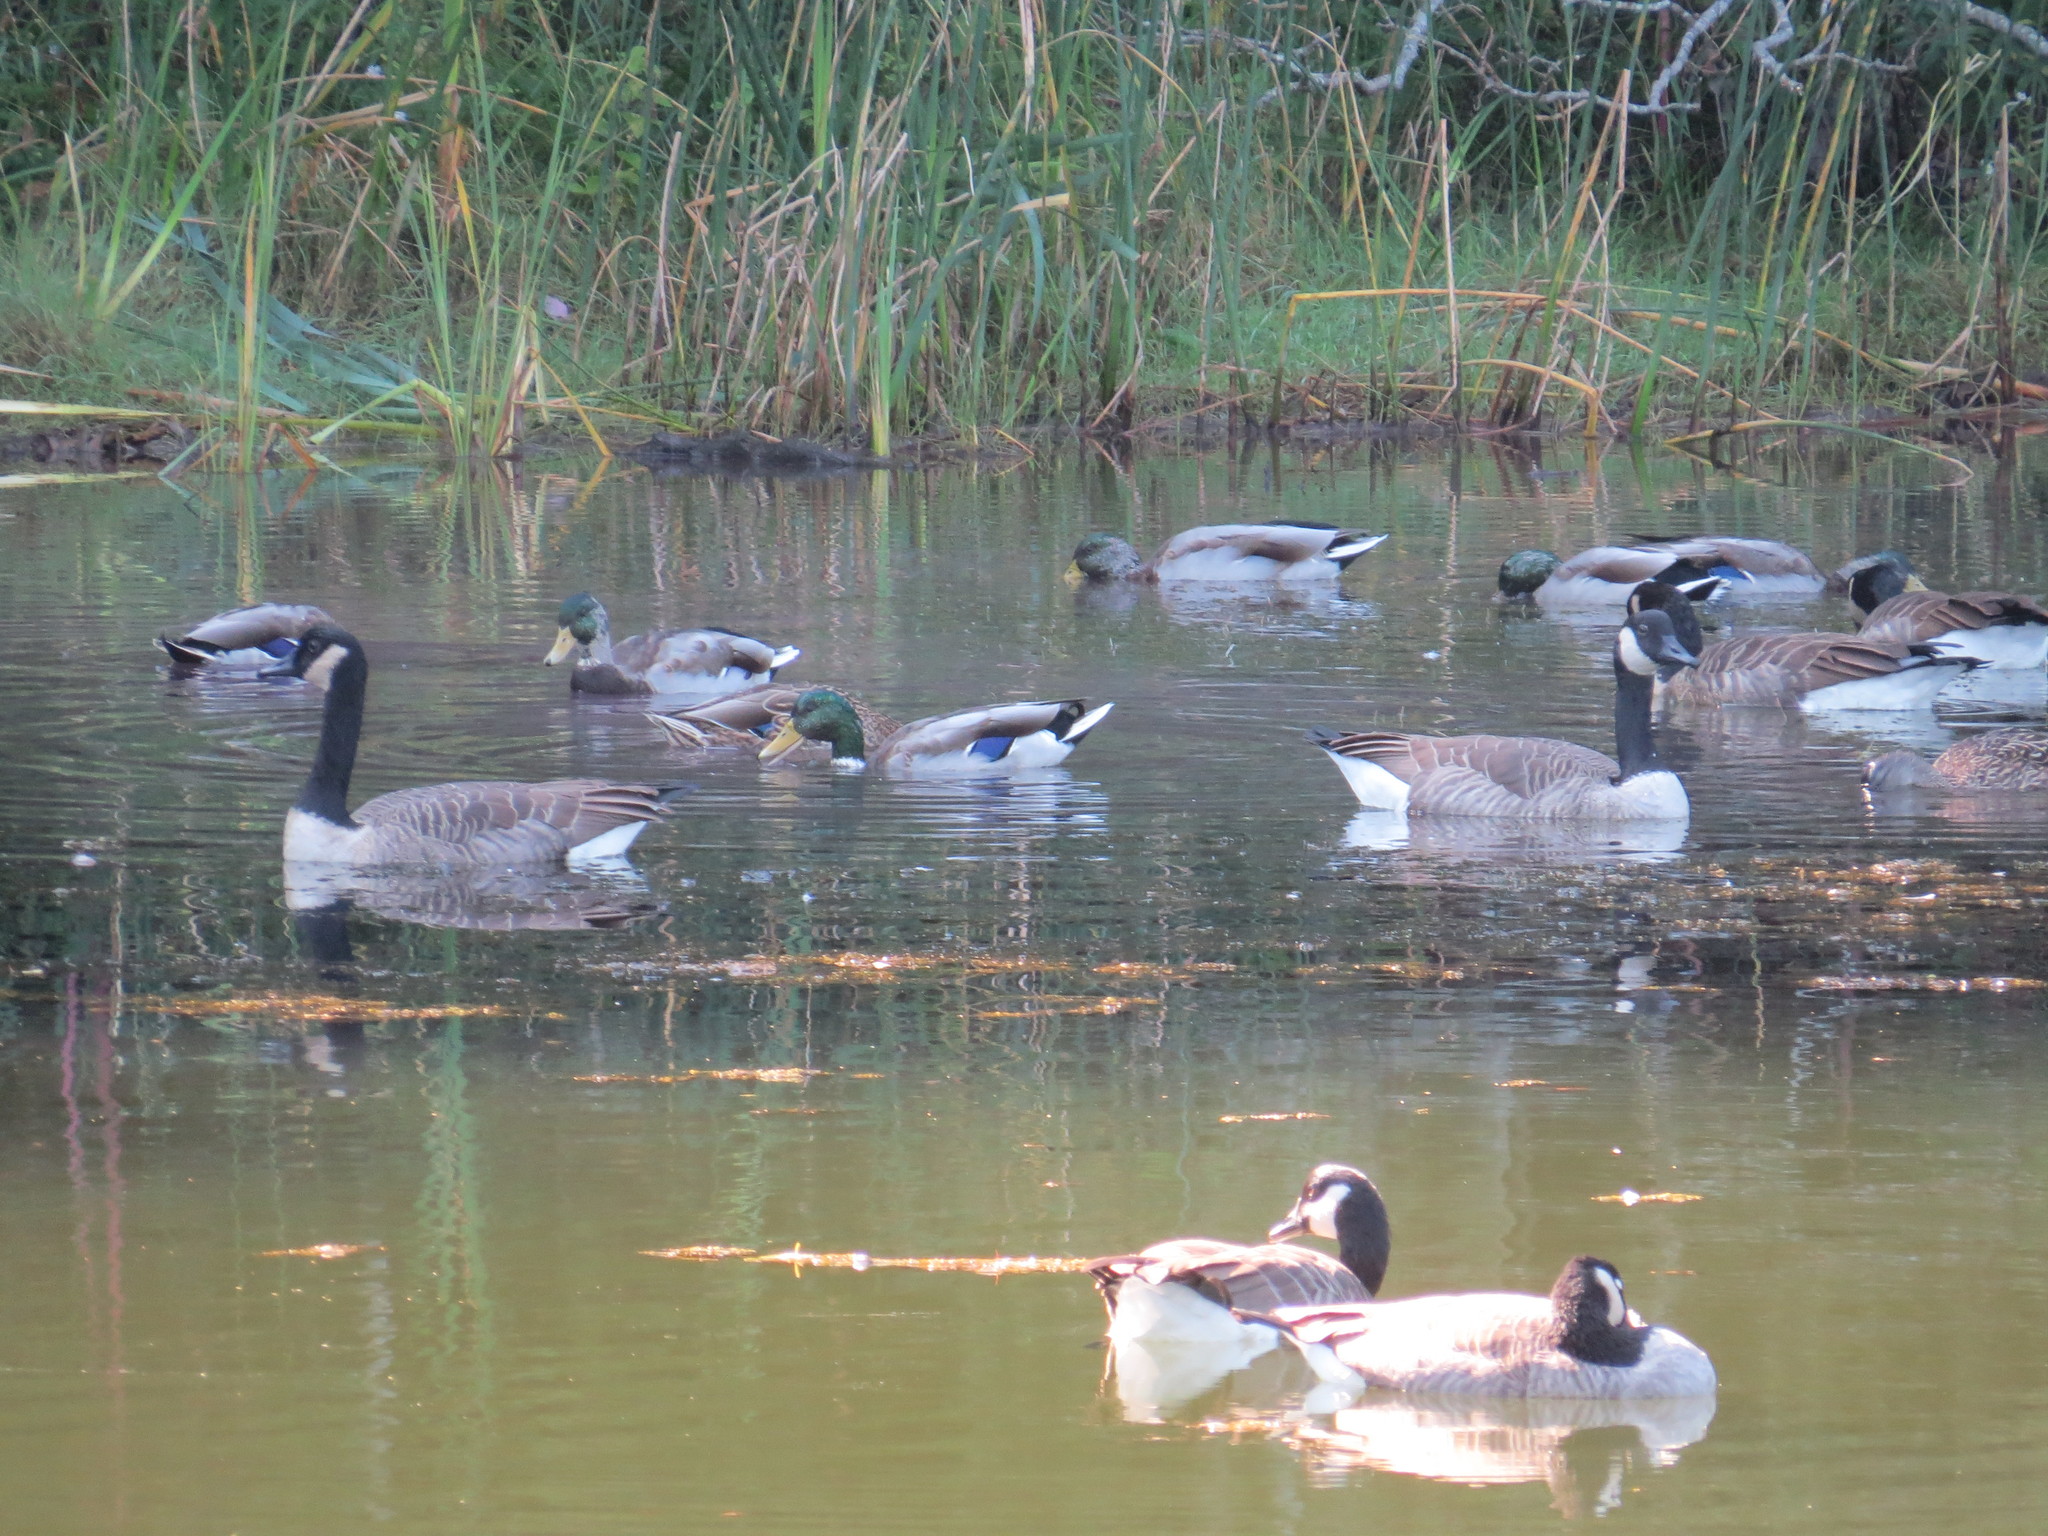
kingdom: Animalia
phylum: Chordata
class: Aves
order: Anseriformes
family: Anatidae
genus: Branta
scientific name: Branta canadensis
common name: Canada goose
